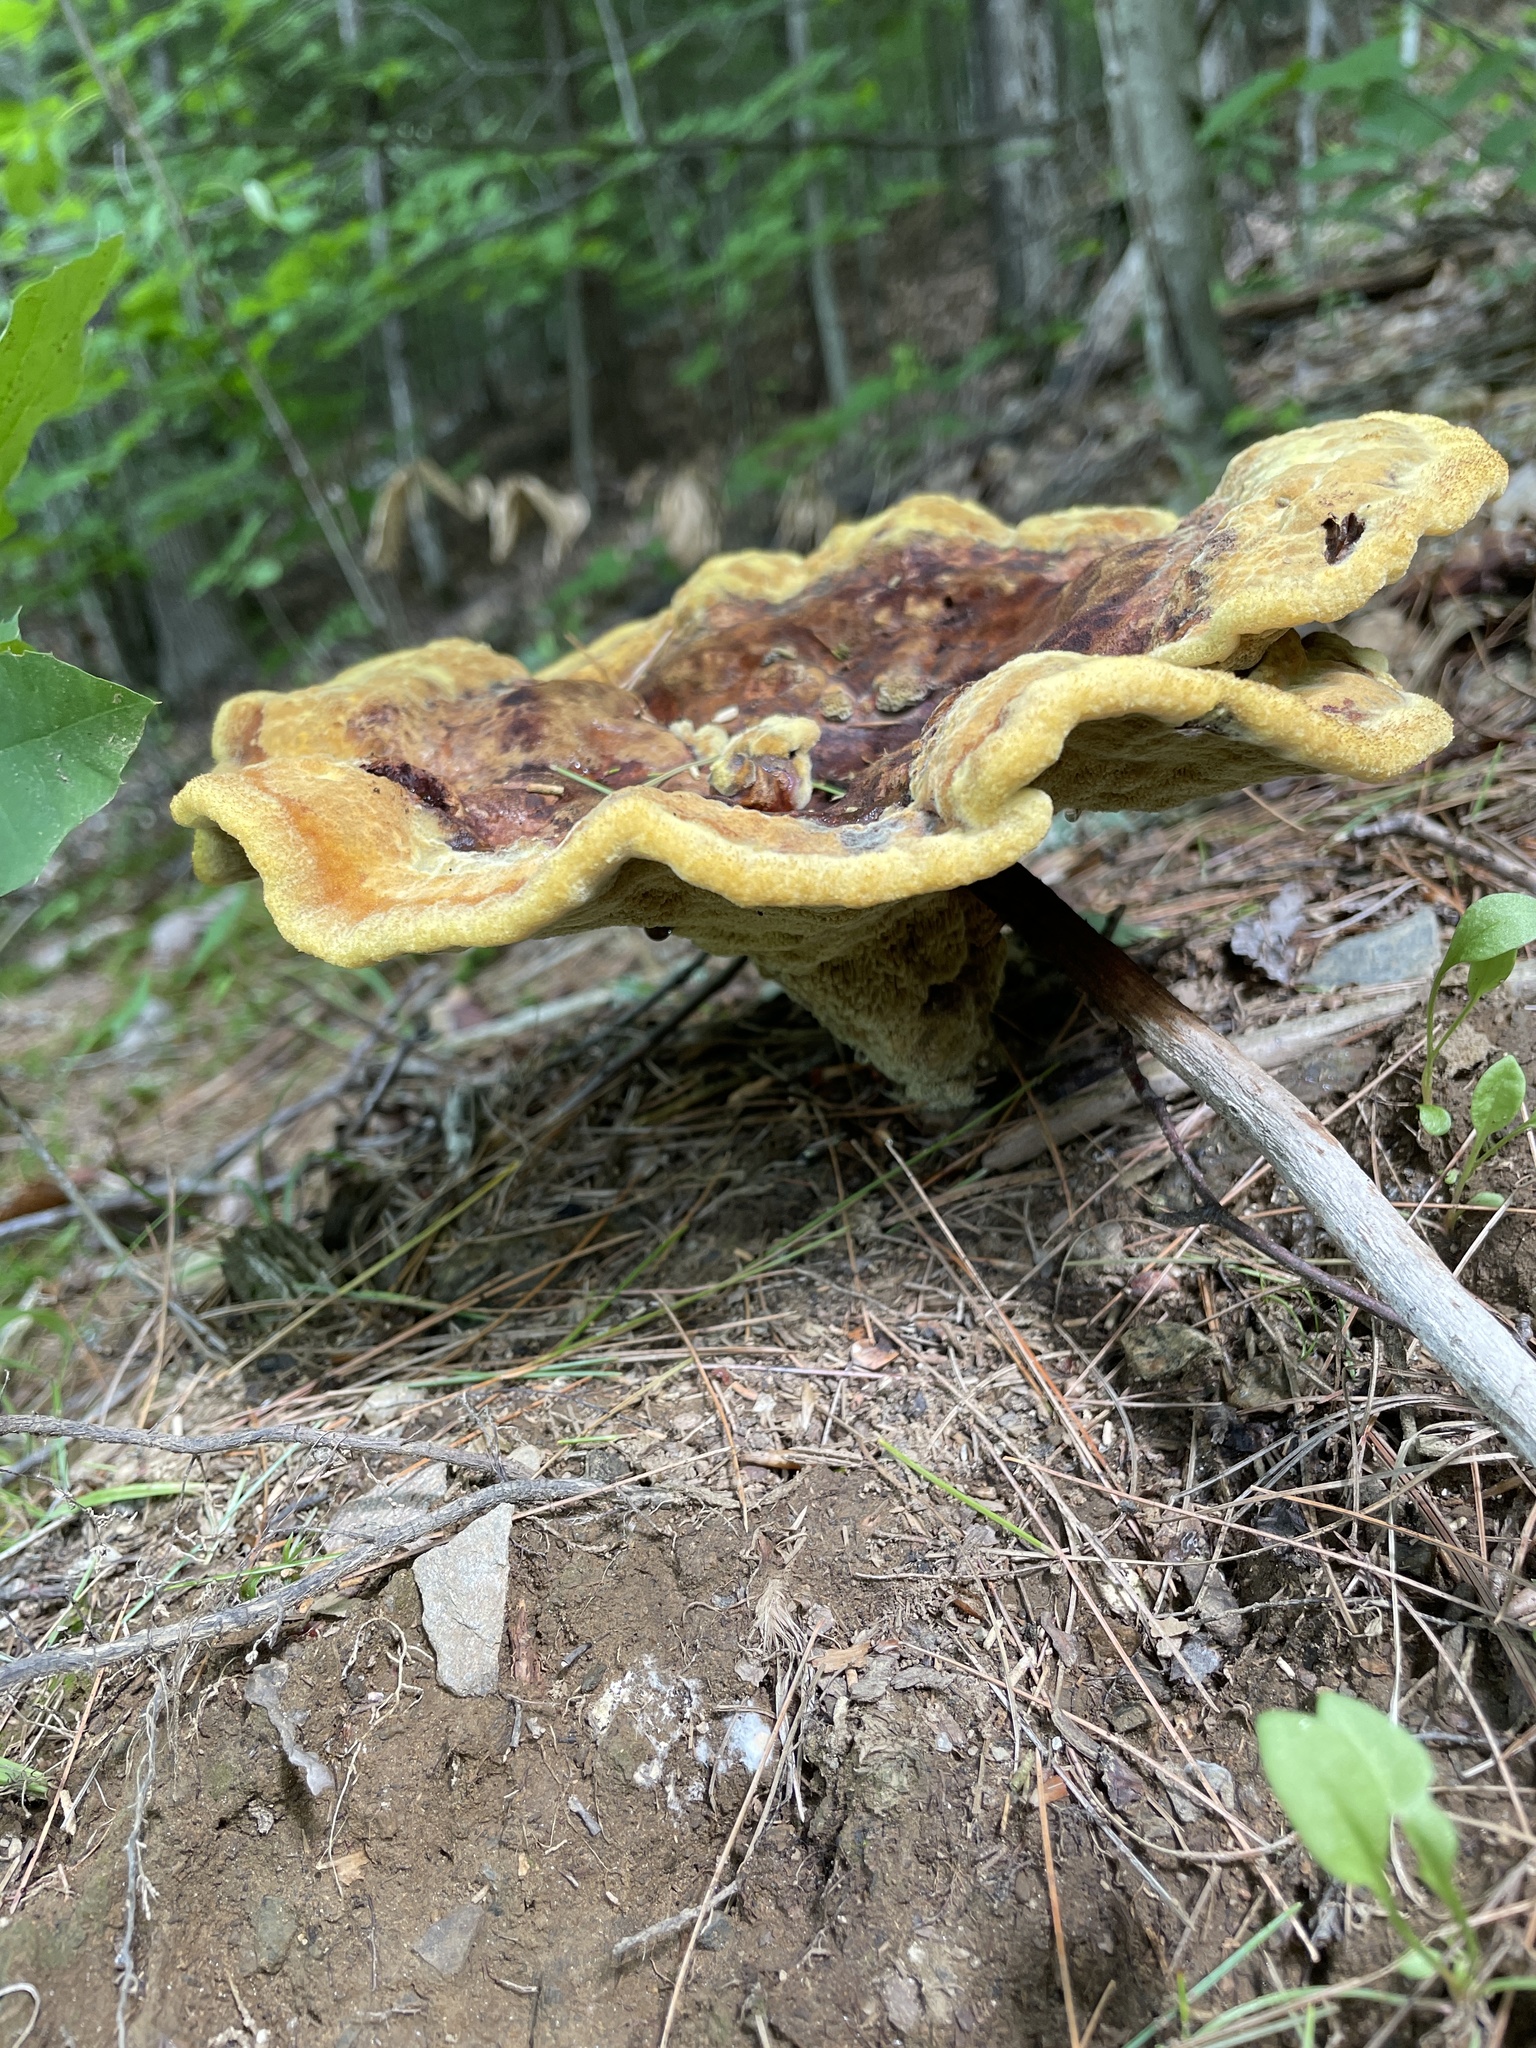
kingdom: Fungi
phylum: Basidiomycota
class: Agaricomycetes
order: Polyporales
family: Laetiporaceae
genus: Phaeolus
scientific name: Phaeolus schweinitzii
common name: Dyer's mazegill
